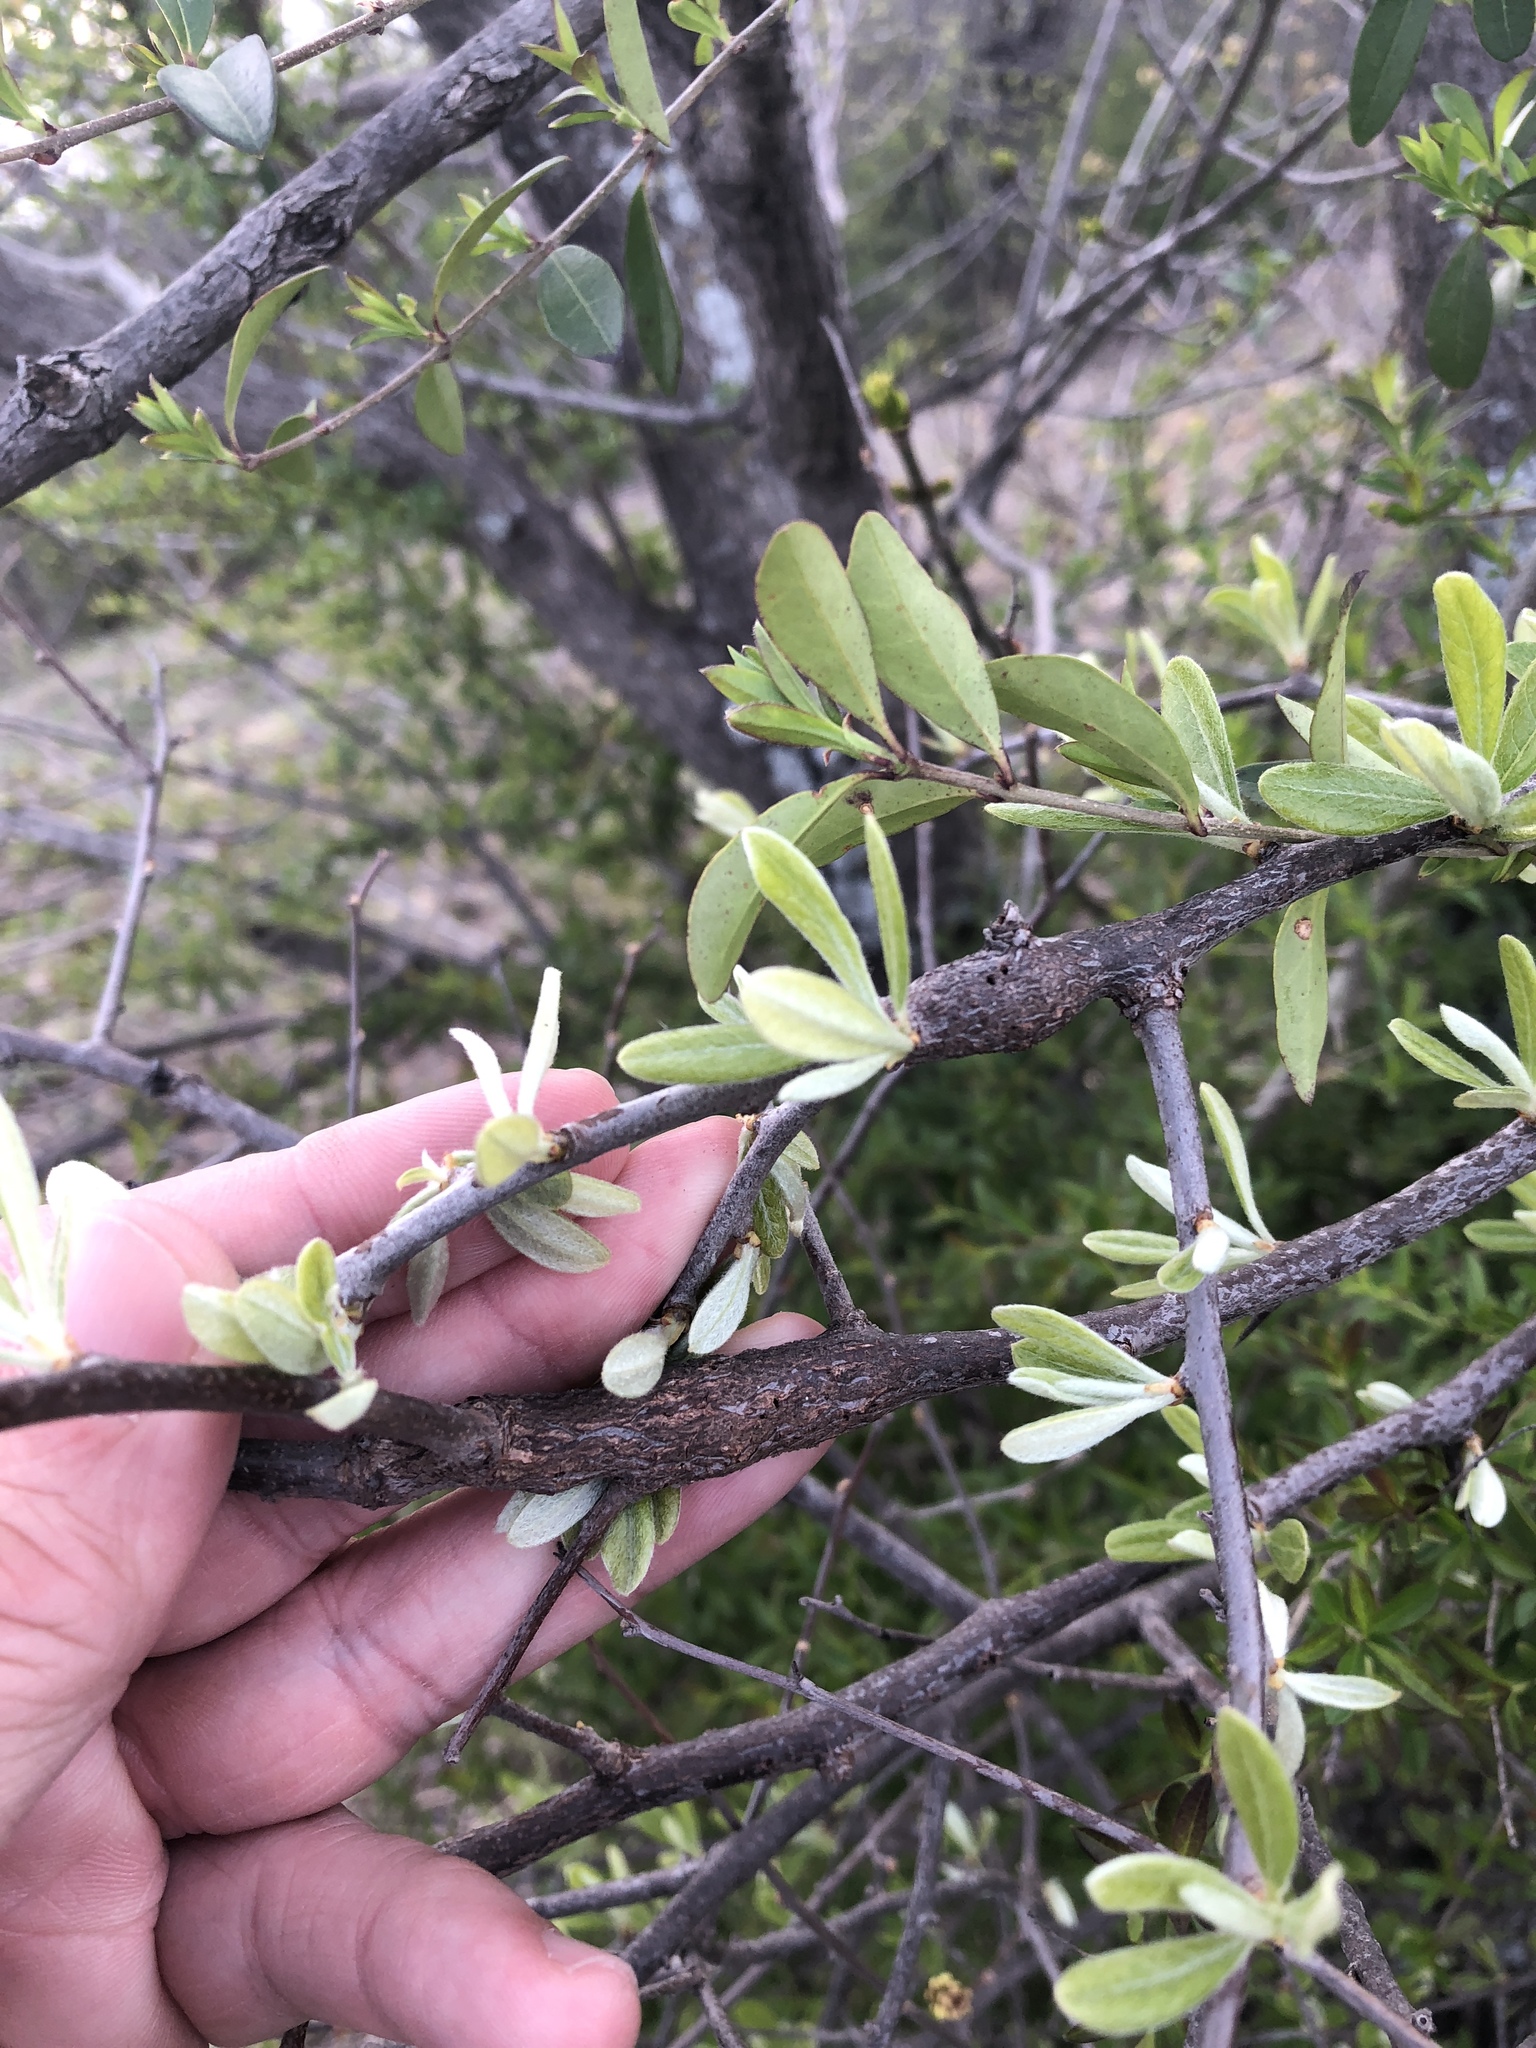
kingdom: Animalia
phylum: Arthropoda
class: Insecta
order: Diptera
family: Cecidomyiidae
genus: Bruggmanniella
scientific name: Bruggmanniella bumeliae
